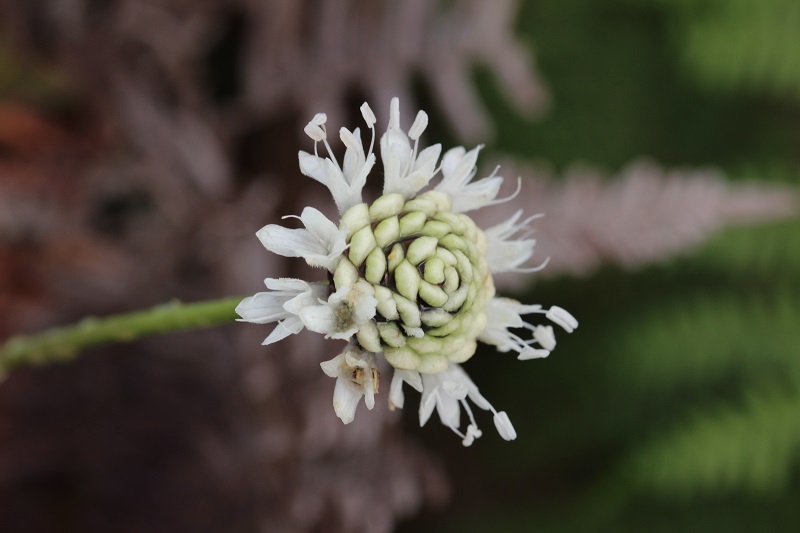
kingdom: Plantae
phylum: Tracheophyta
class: Magnoliopsida
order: Dipsacales
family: Caprifoliaceae
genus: Cephalaria
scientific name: Cephalaria humilis
